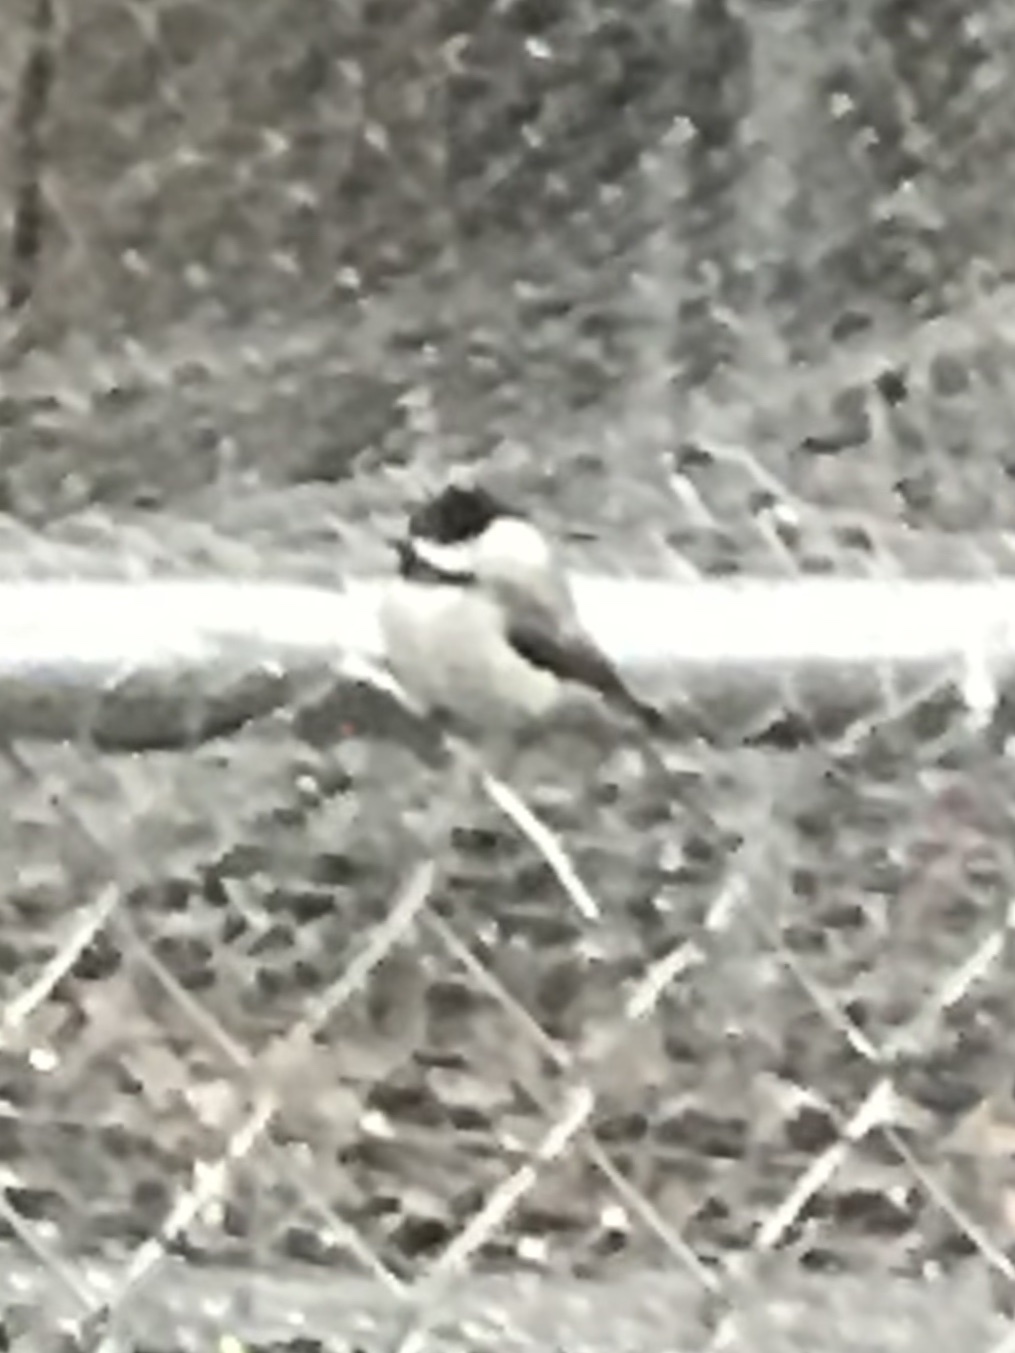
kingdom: Animalia
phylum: Chordata
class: Aves
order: Passeriformes
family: Paridae
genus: Poecile
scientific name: Poecile carolinensis
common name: Carolina chickadee
